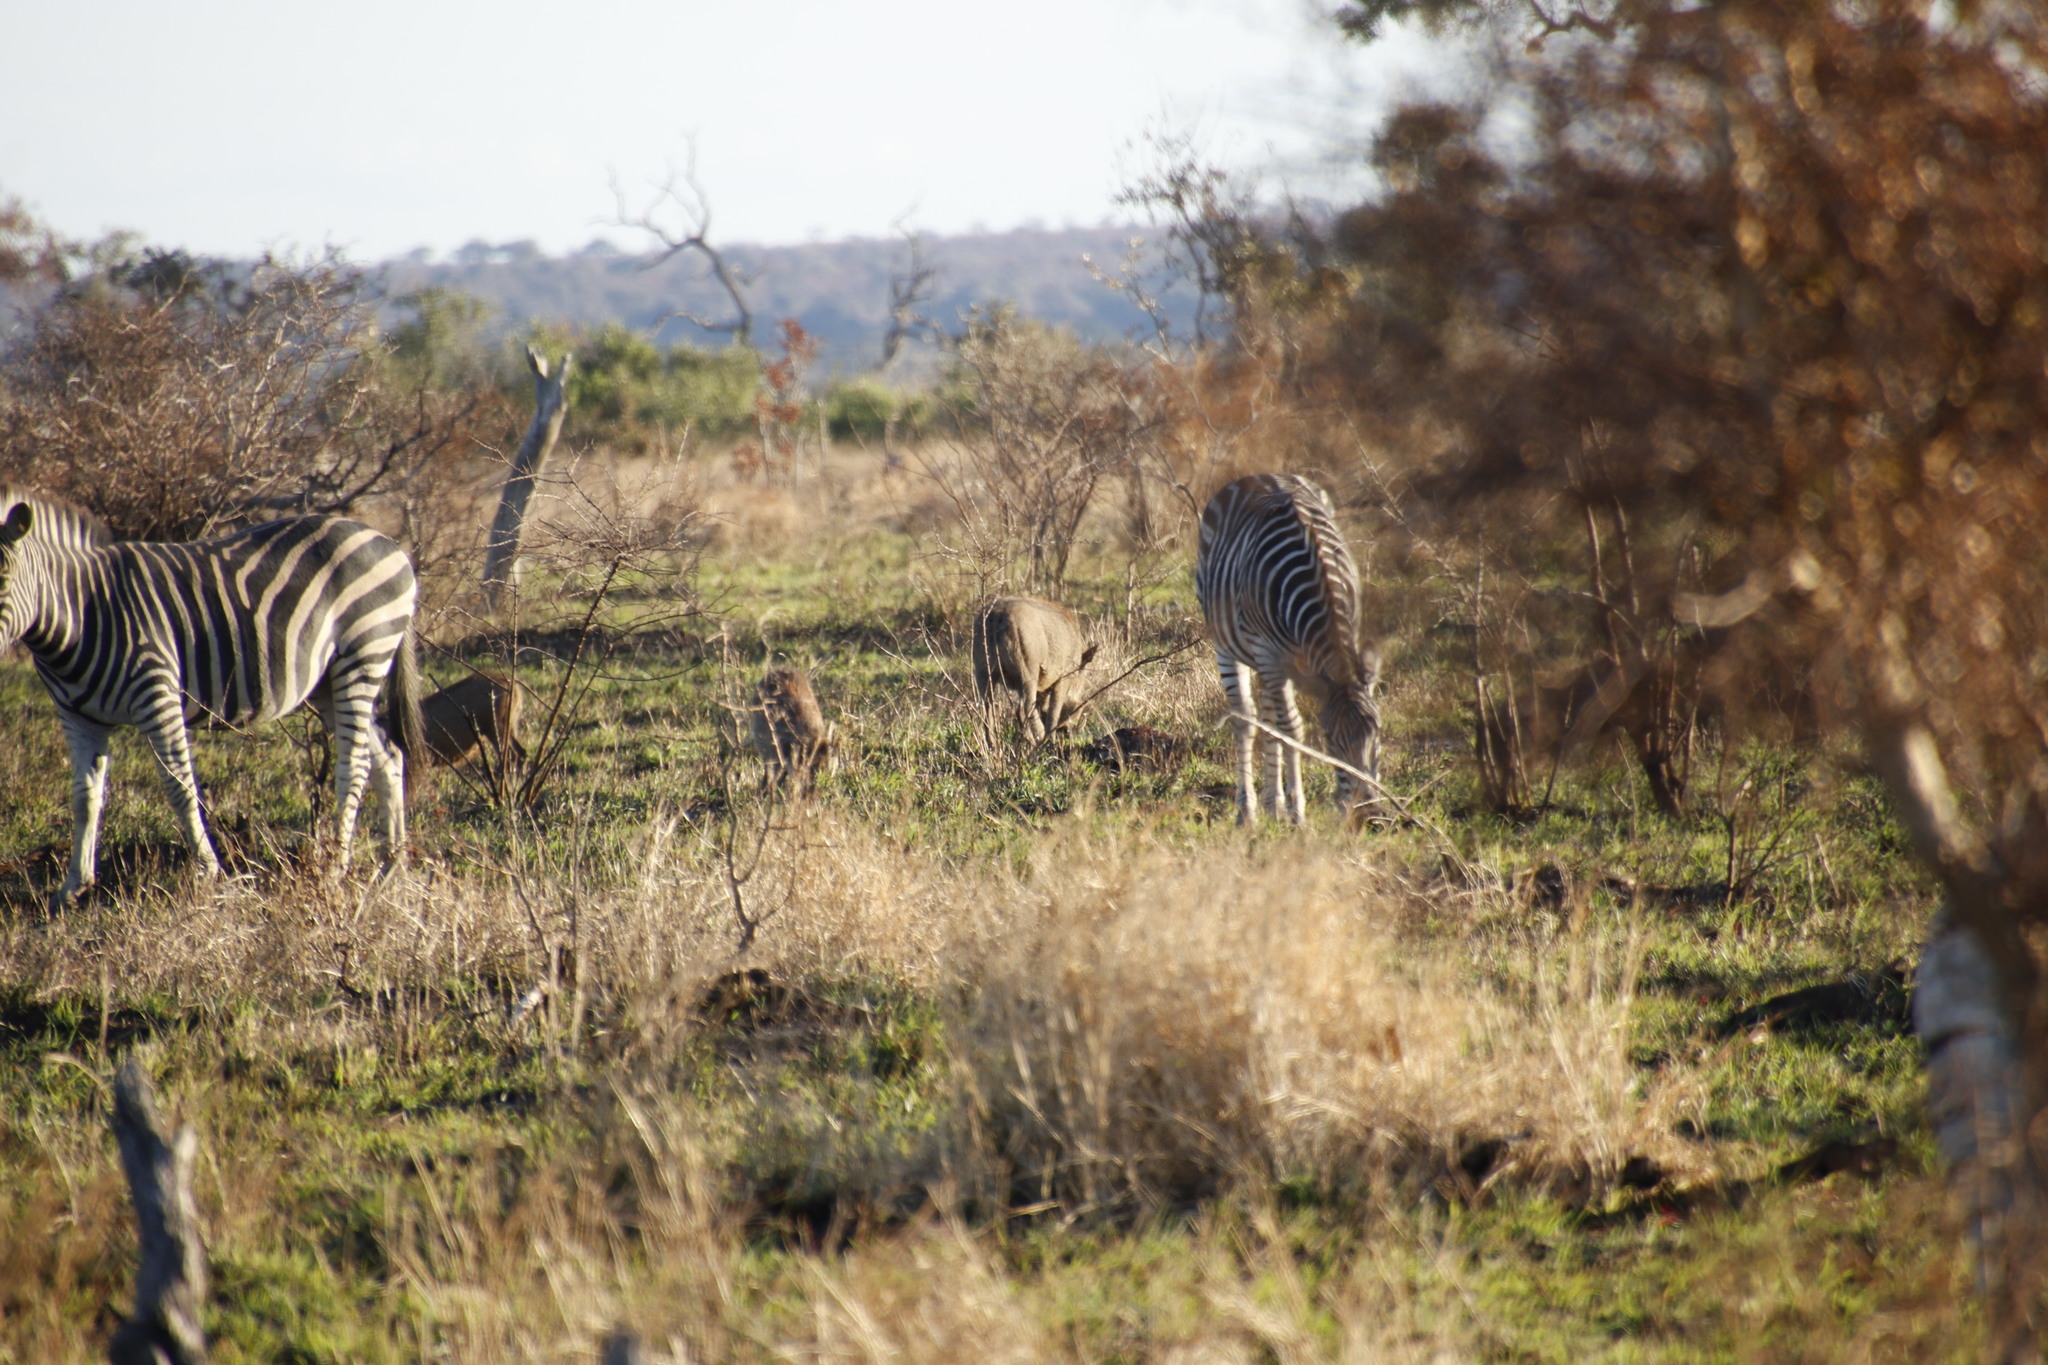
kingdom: Animalia
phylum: Chordata
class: Mammalia
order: Perissodactyla
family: Equidae
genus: Equus
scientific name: Equus quagga
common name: Plains zebra
